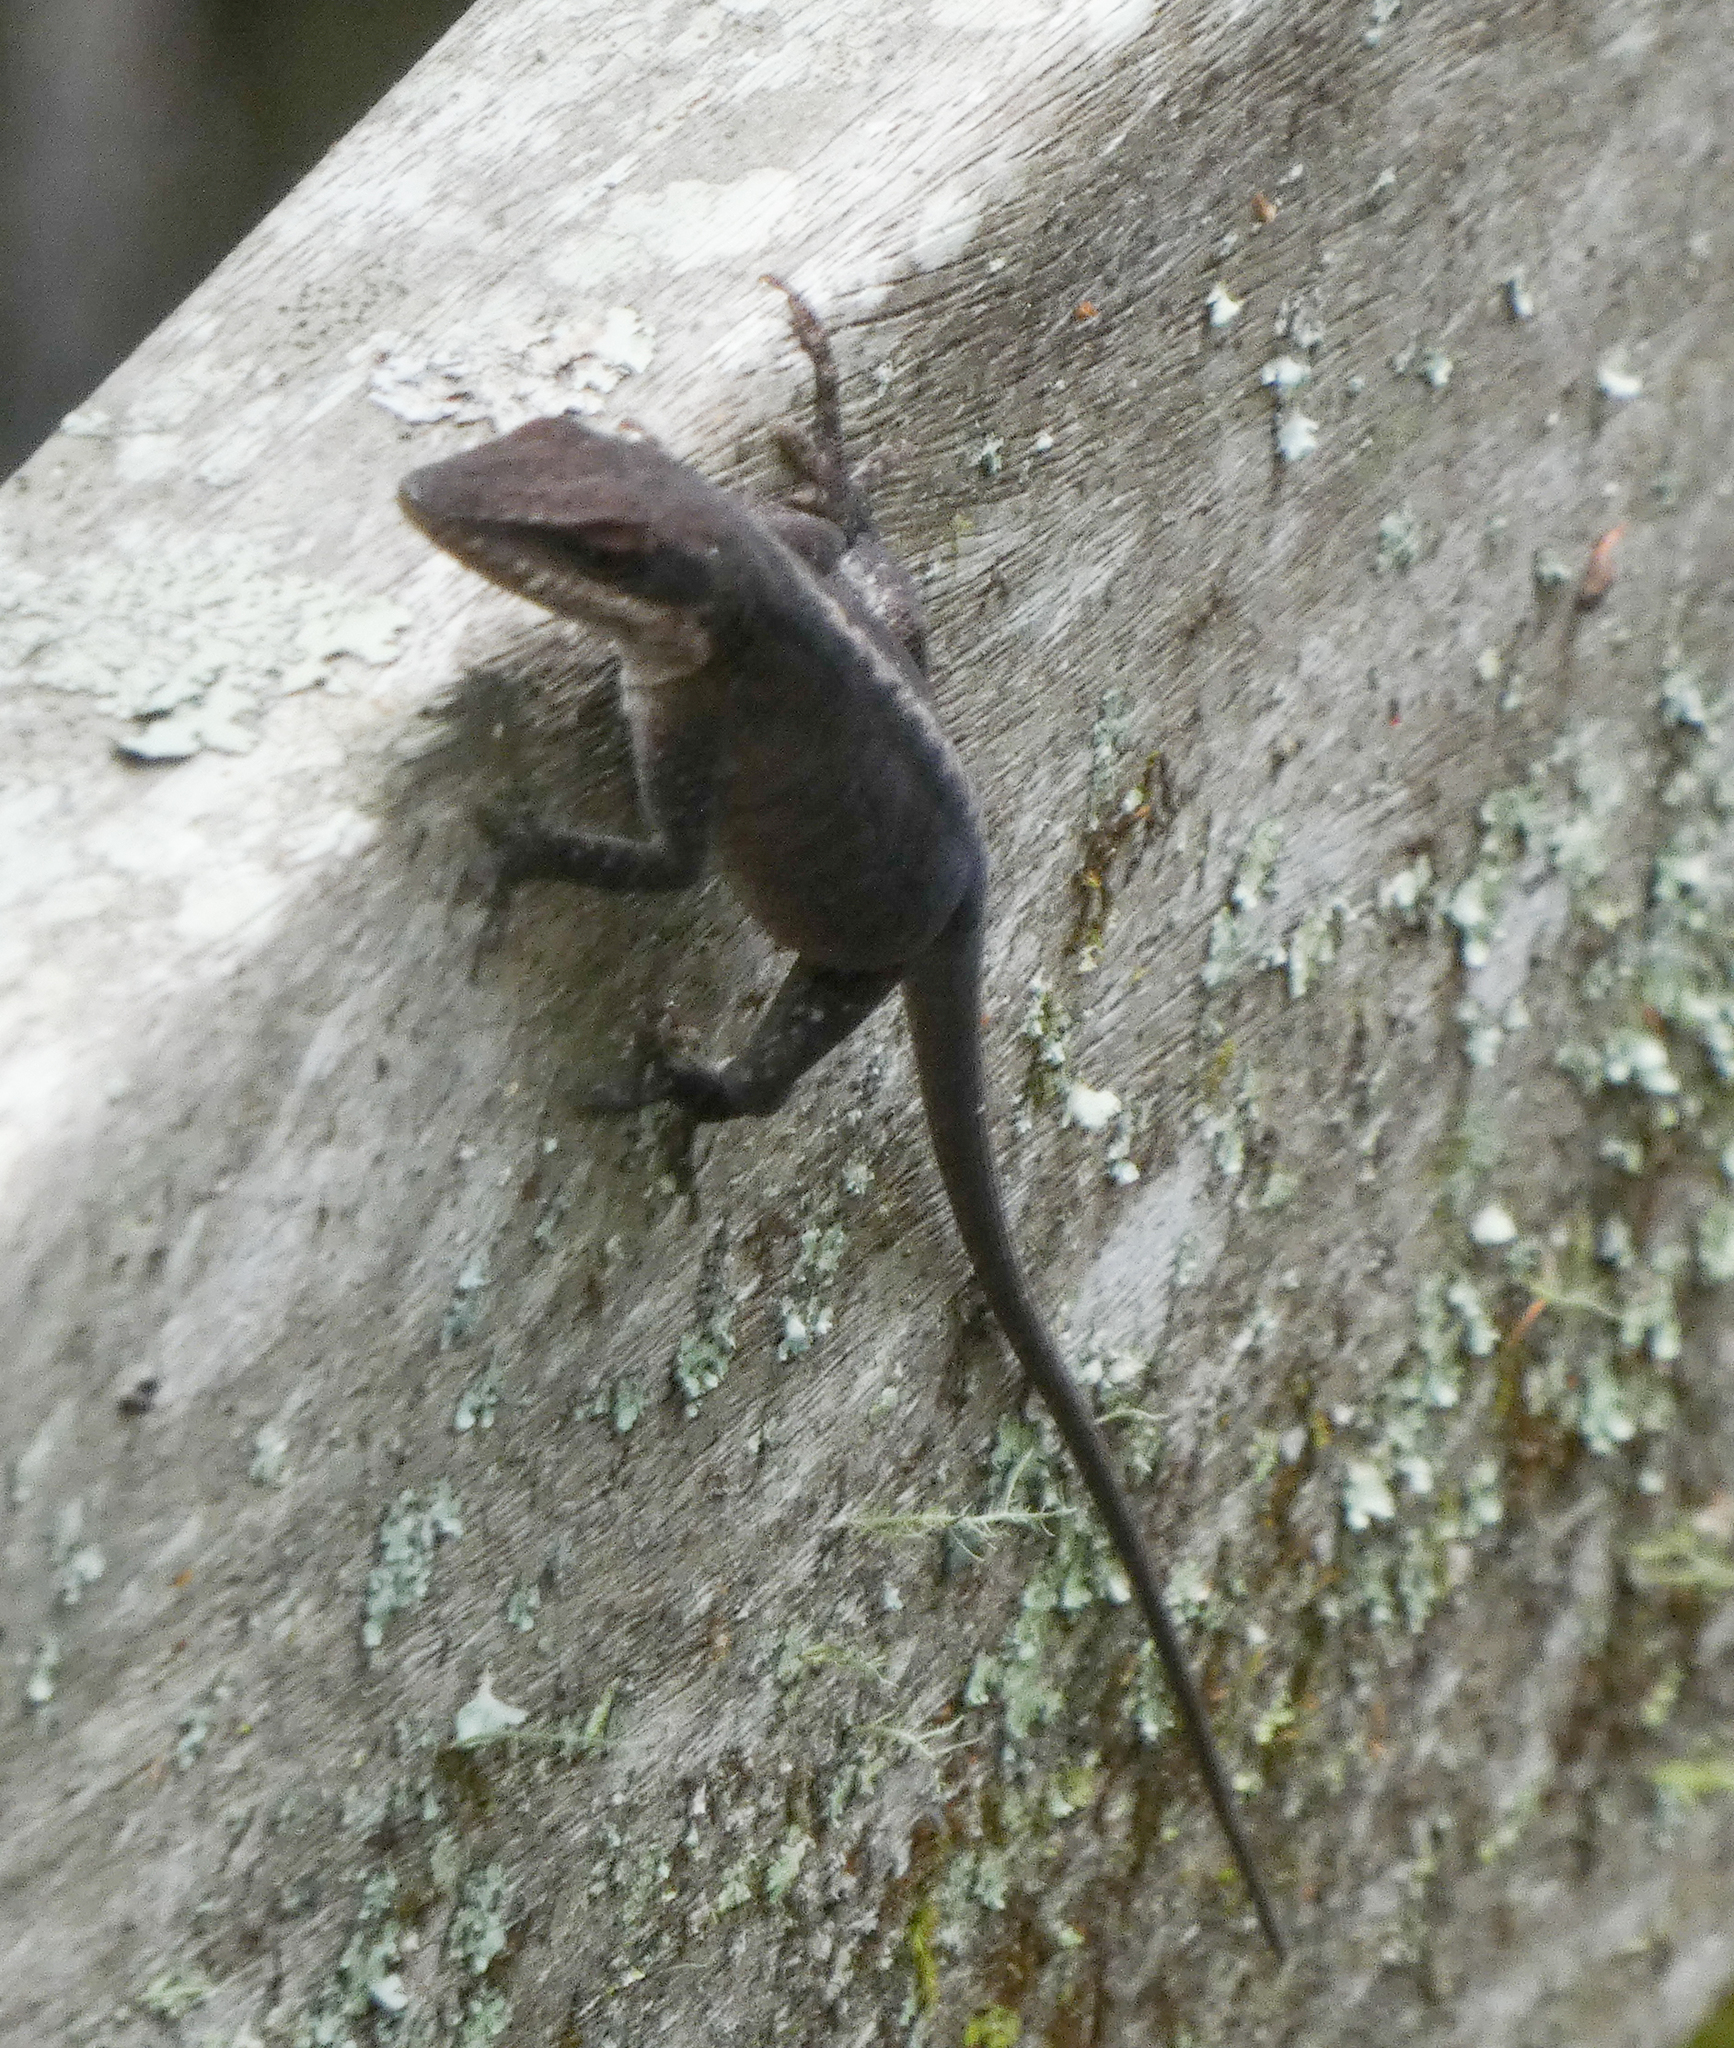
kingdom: Animalia
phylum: Chordata
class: Squamata
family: Dactyloidae
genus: Anolis
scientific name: Anolis carolinensis
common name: Green anole
